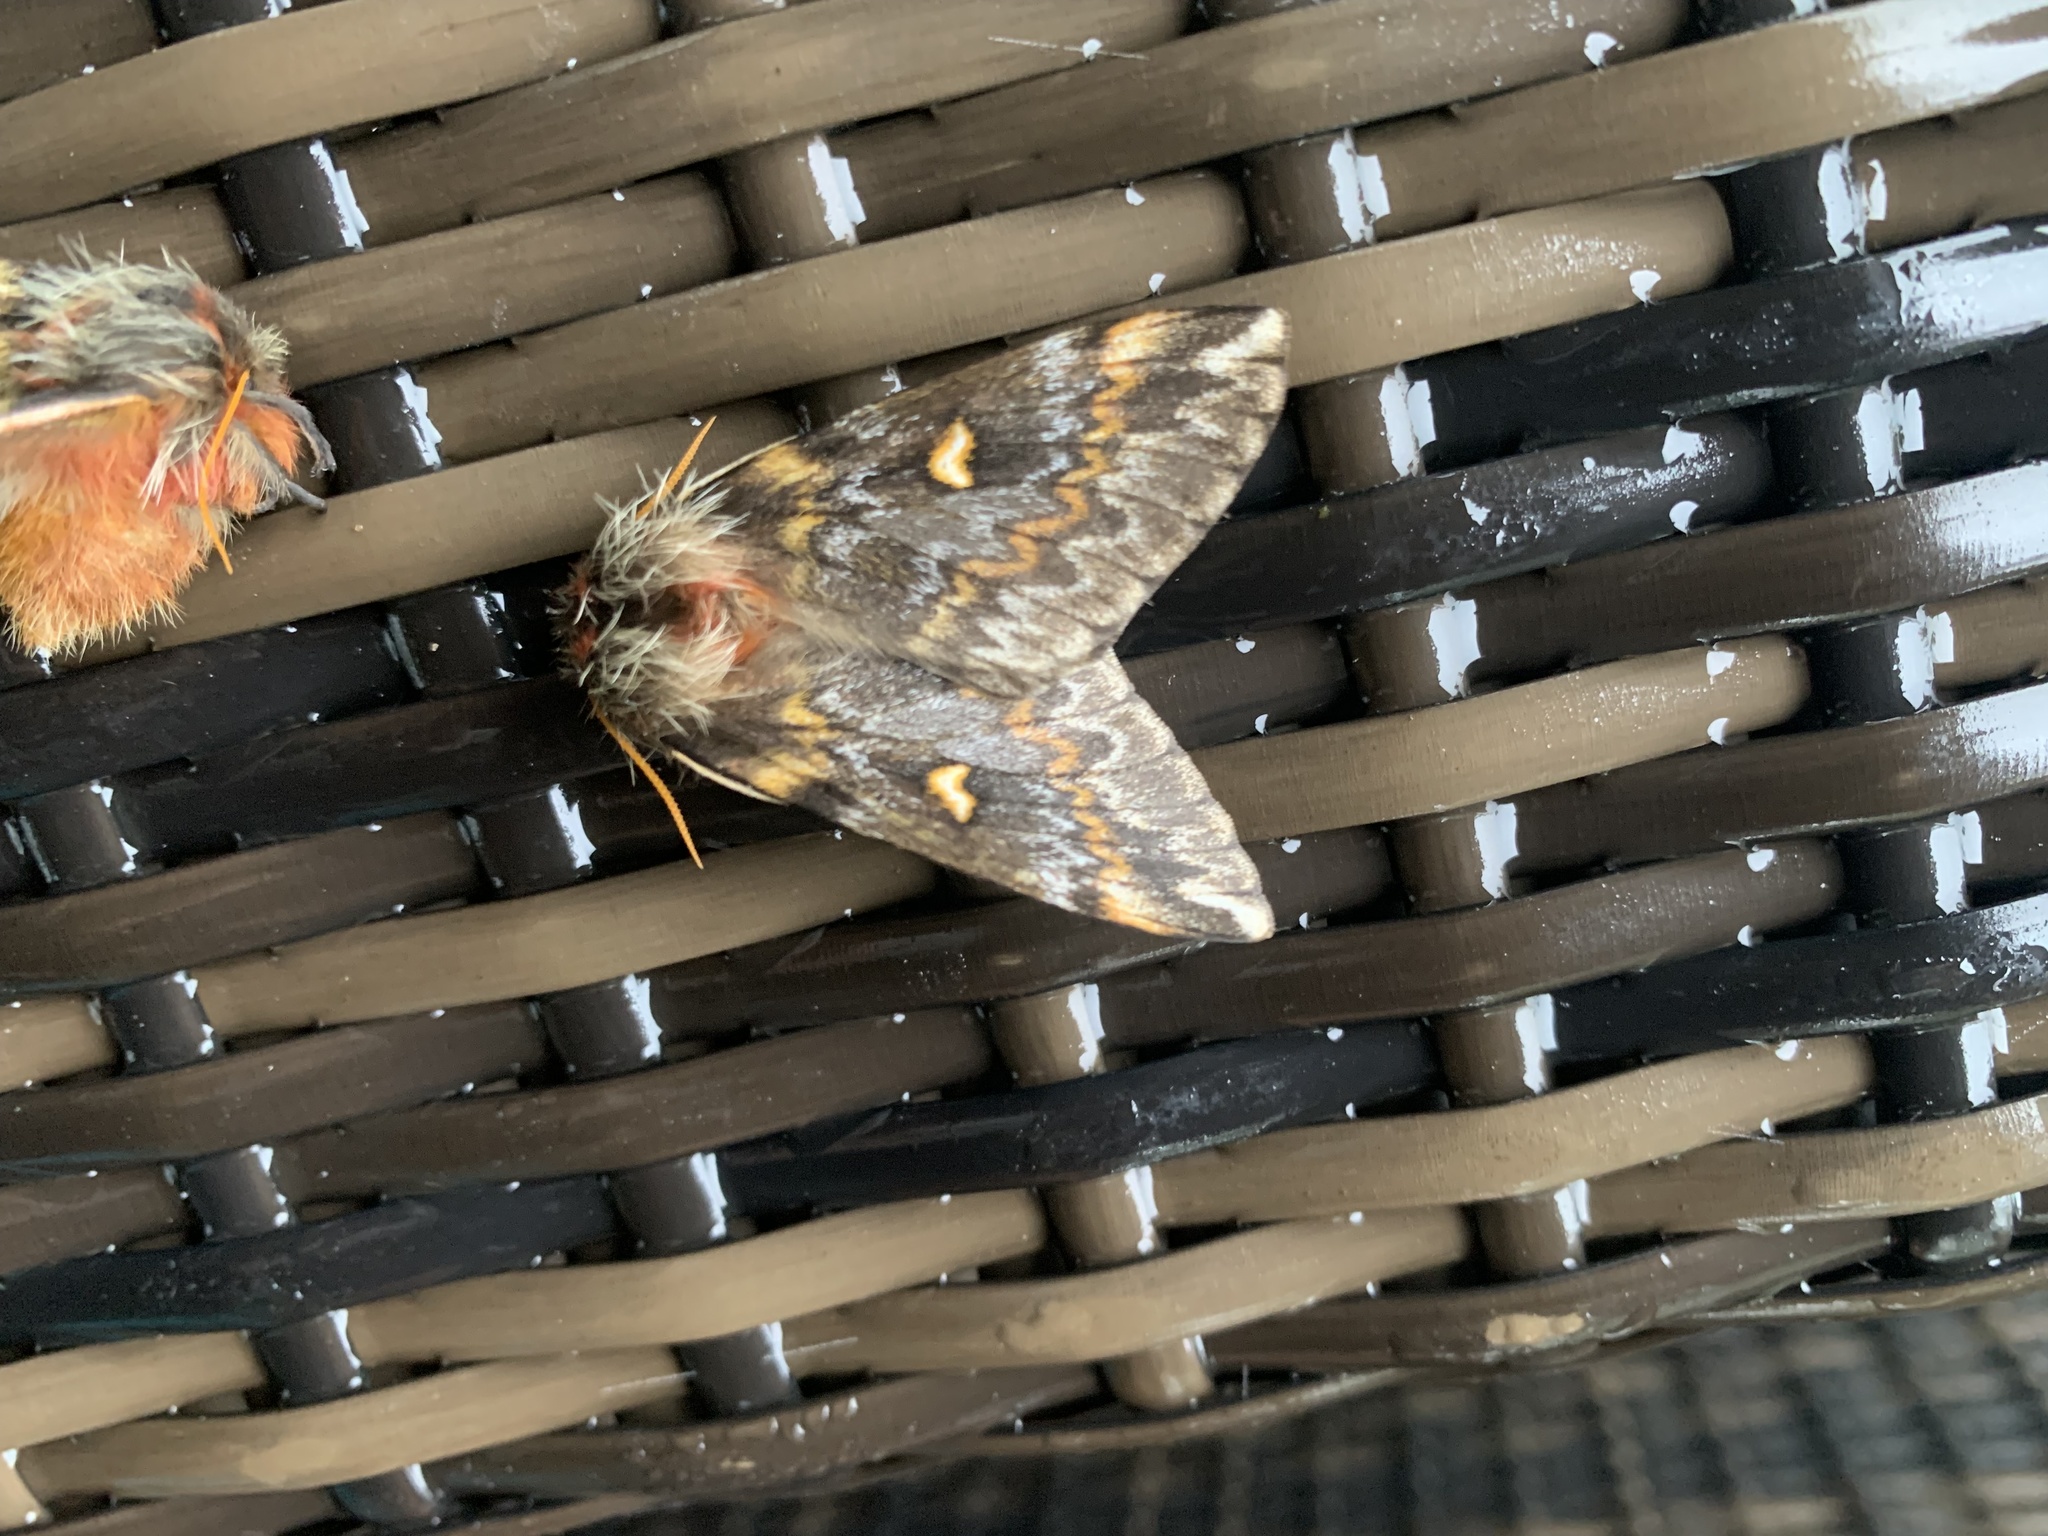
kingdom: Animalia
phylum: Arthropoda
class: Insecta
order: Lepidoptera
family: Saturniidae
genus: Ormiscodes
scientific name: Ormiscodes schmidtnielseni
